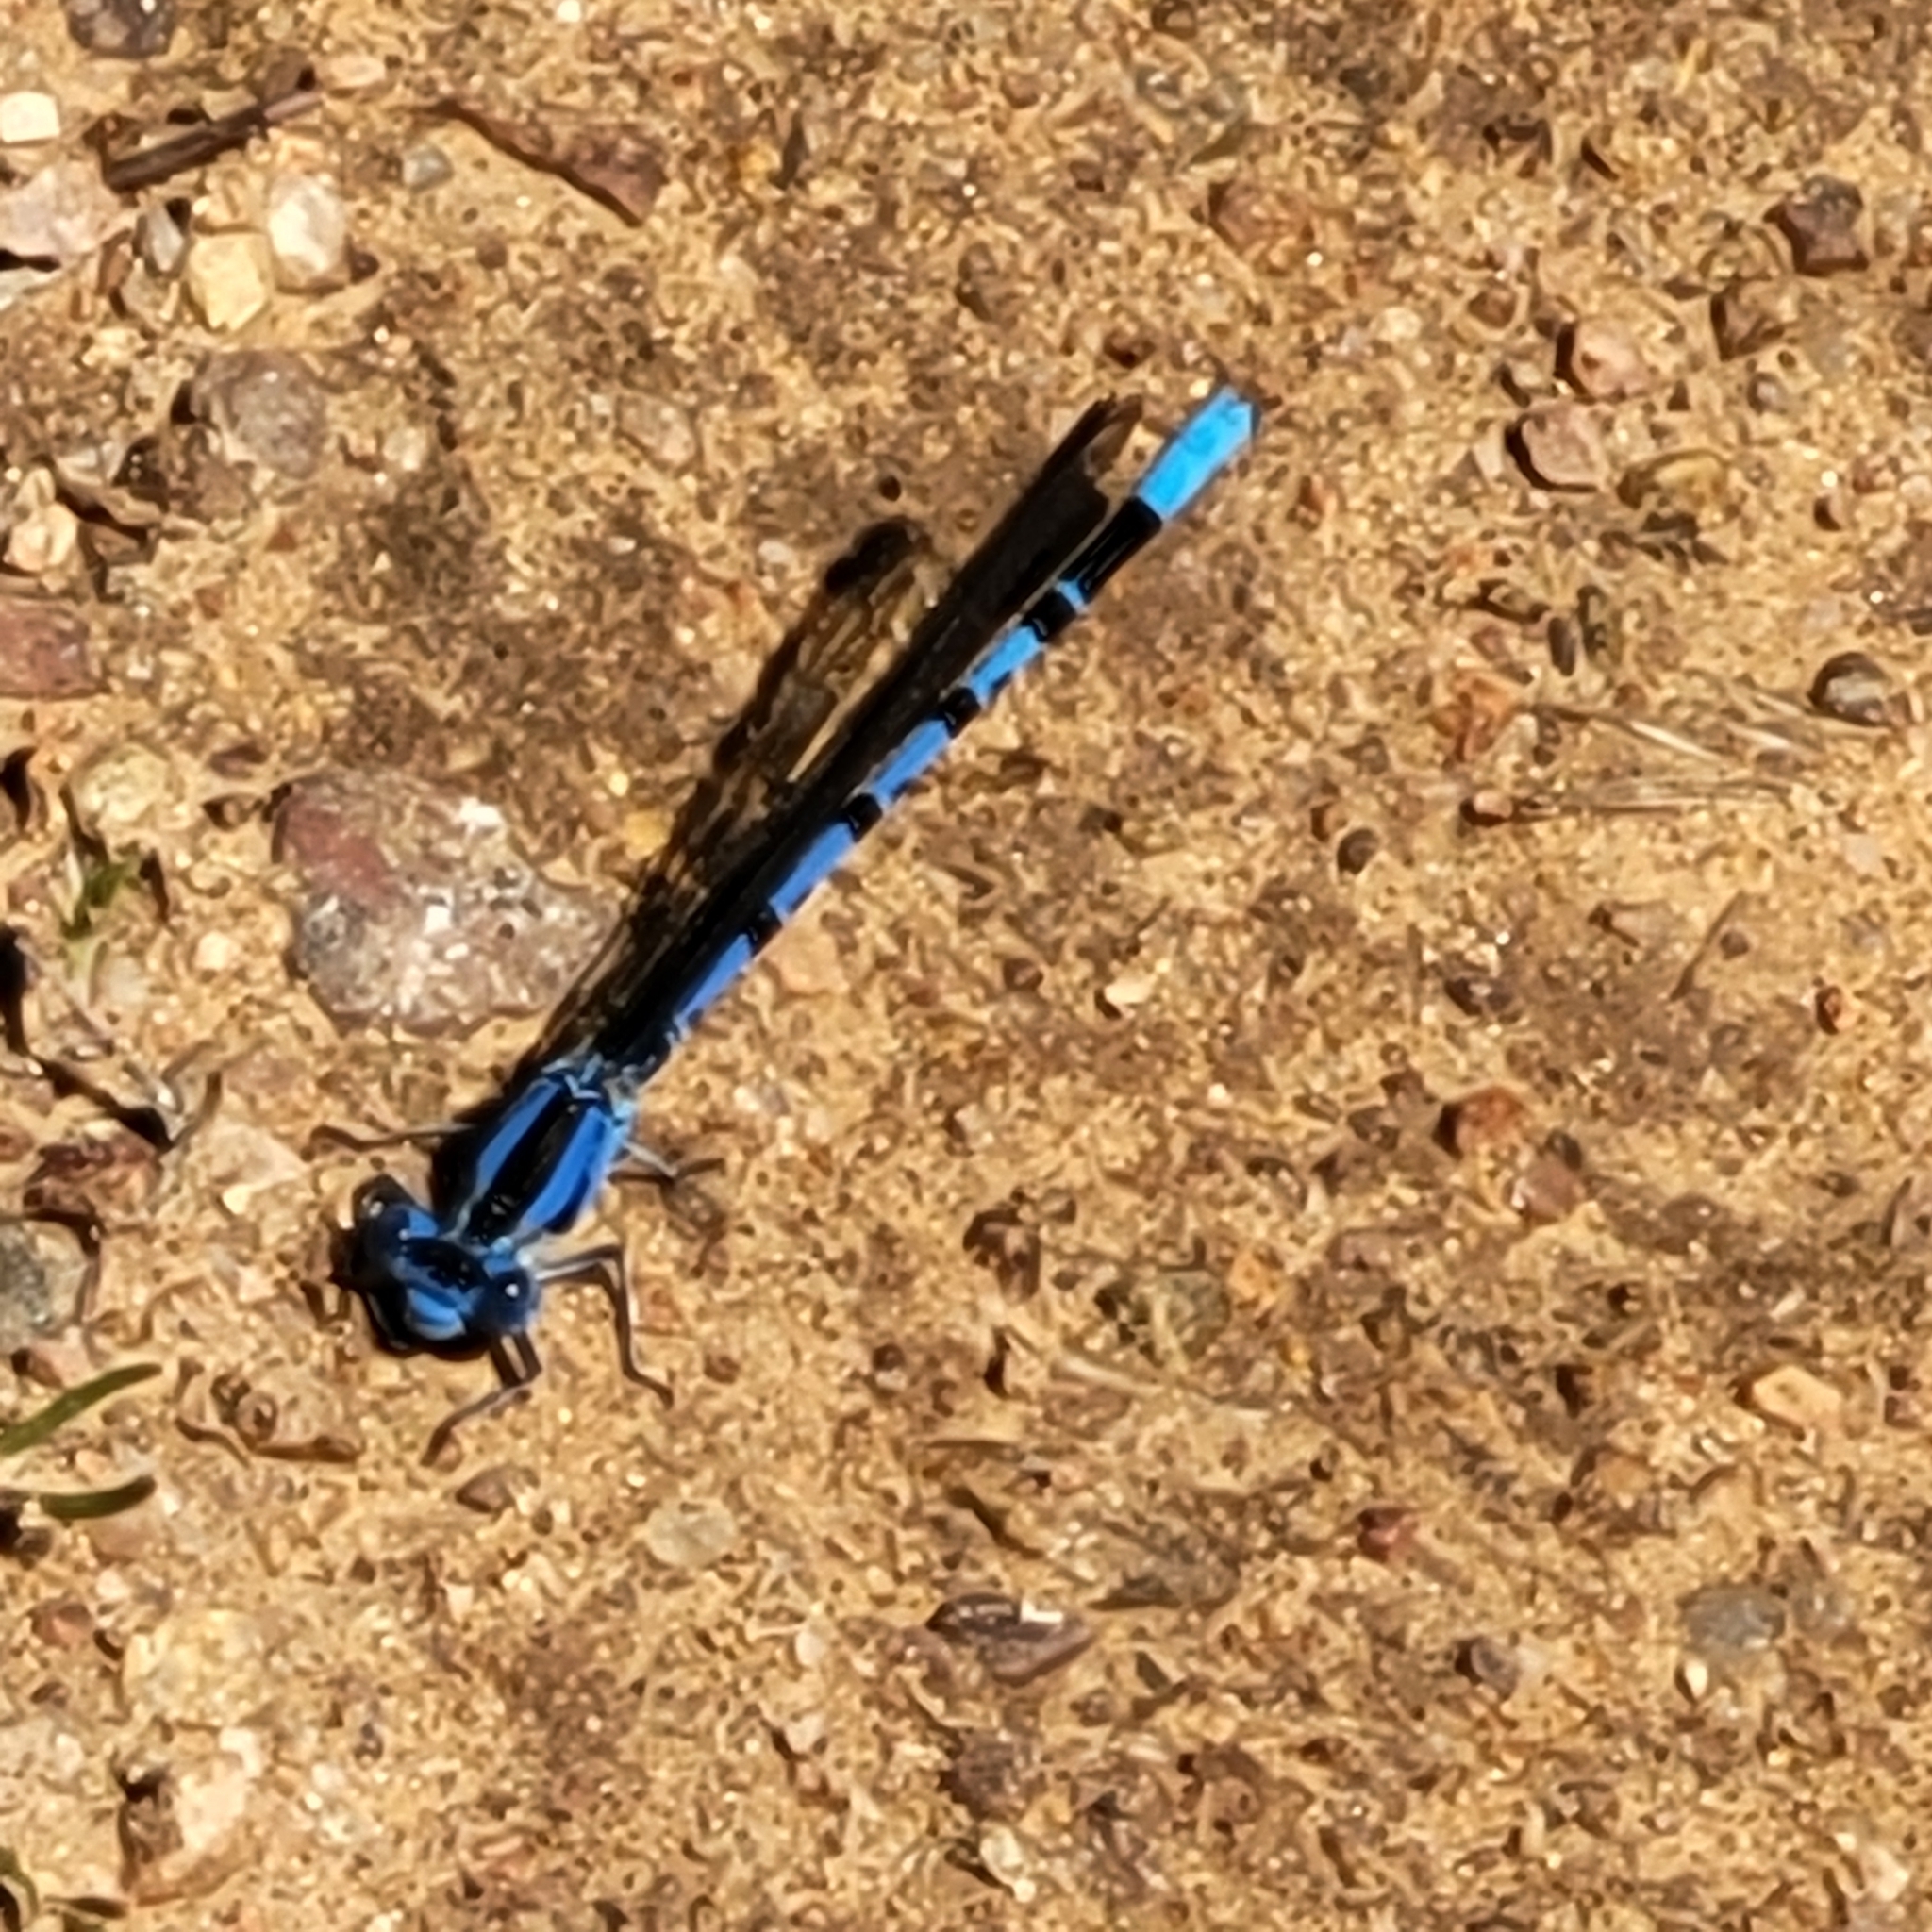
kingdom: Animalia
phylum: Arthropoda
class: Insecta
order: Odonata
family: Coenagrionidae
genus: Argia
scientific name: Argia vivida
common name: Vivid dancer
